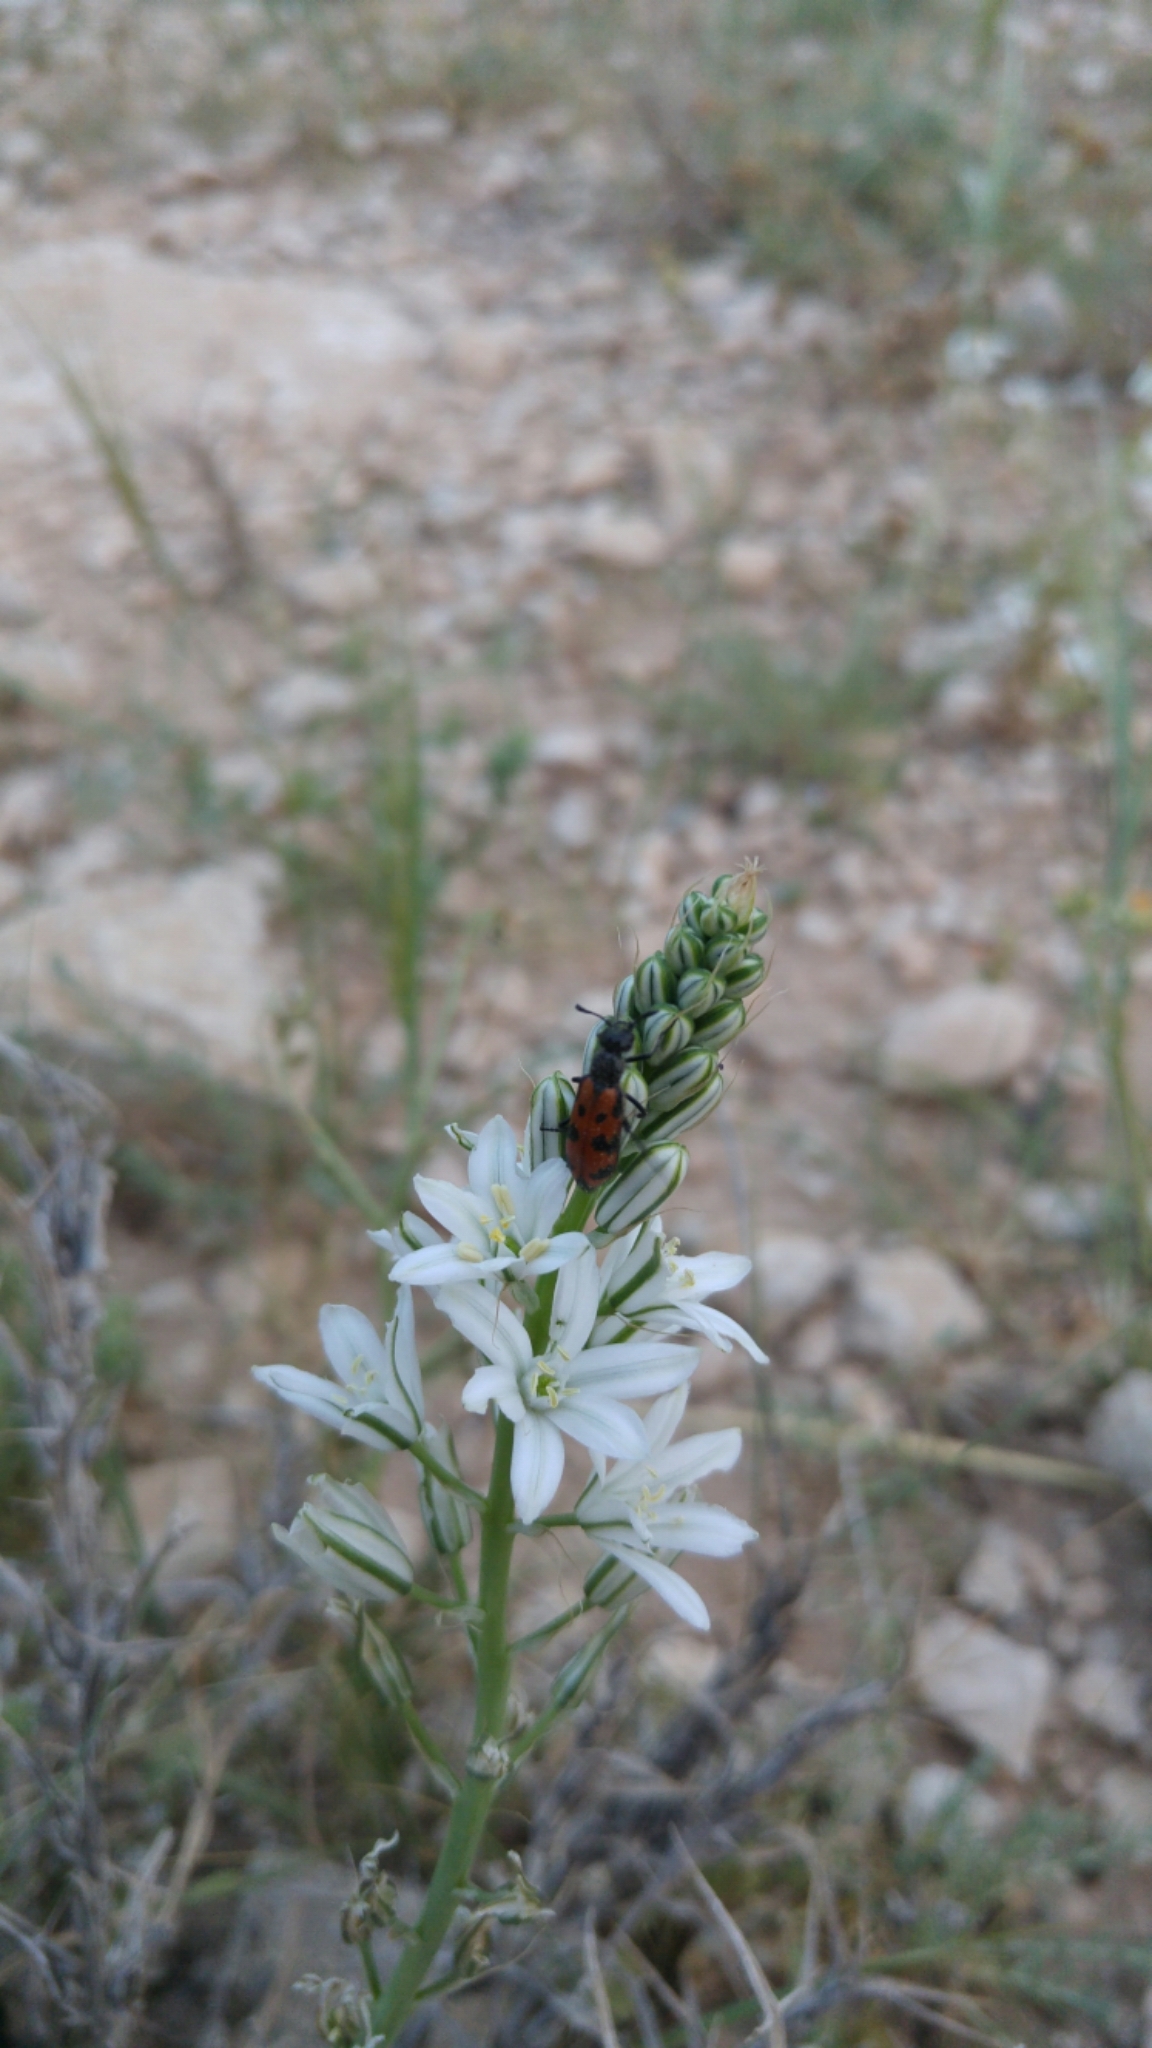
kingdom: Plantae
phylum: Tracheophyta
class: Liliopsida
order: Asparagales
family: Asparagaceae
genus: Ornithogalum
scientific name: Ornithogalum narbonense
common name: Bath-asparagus
